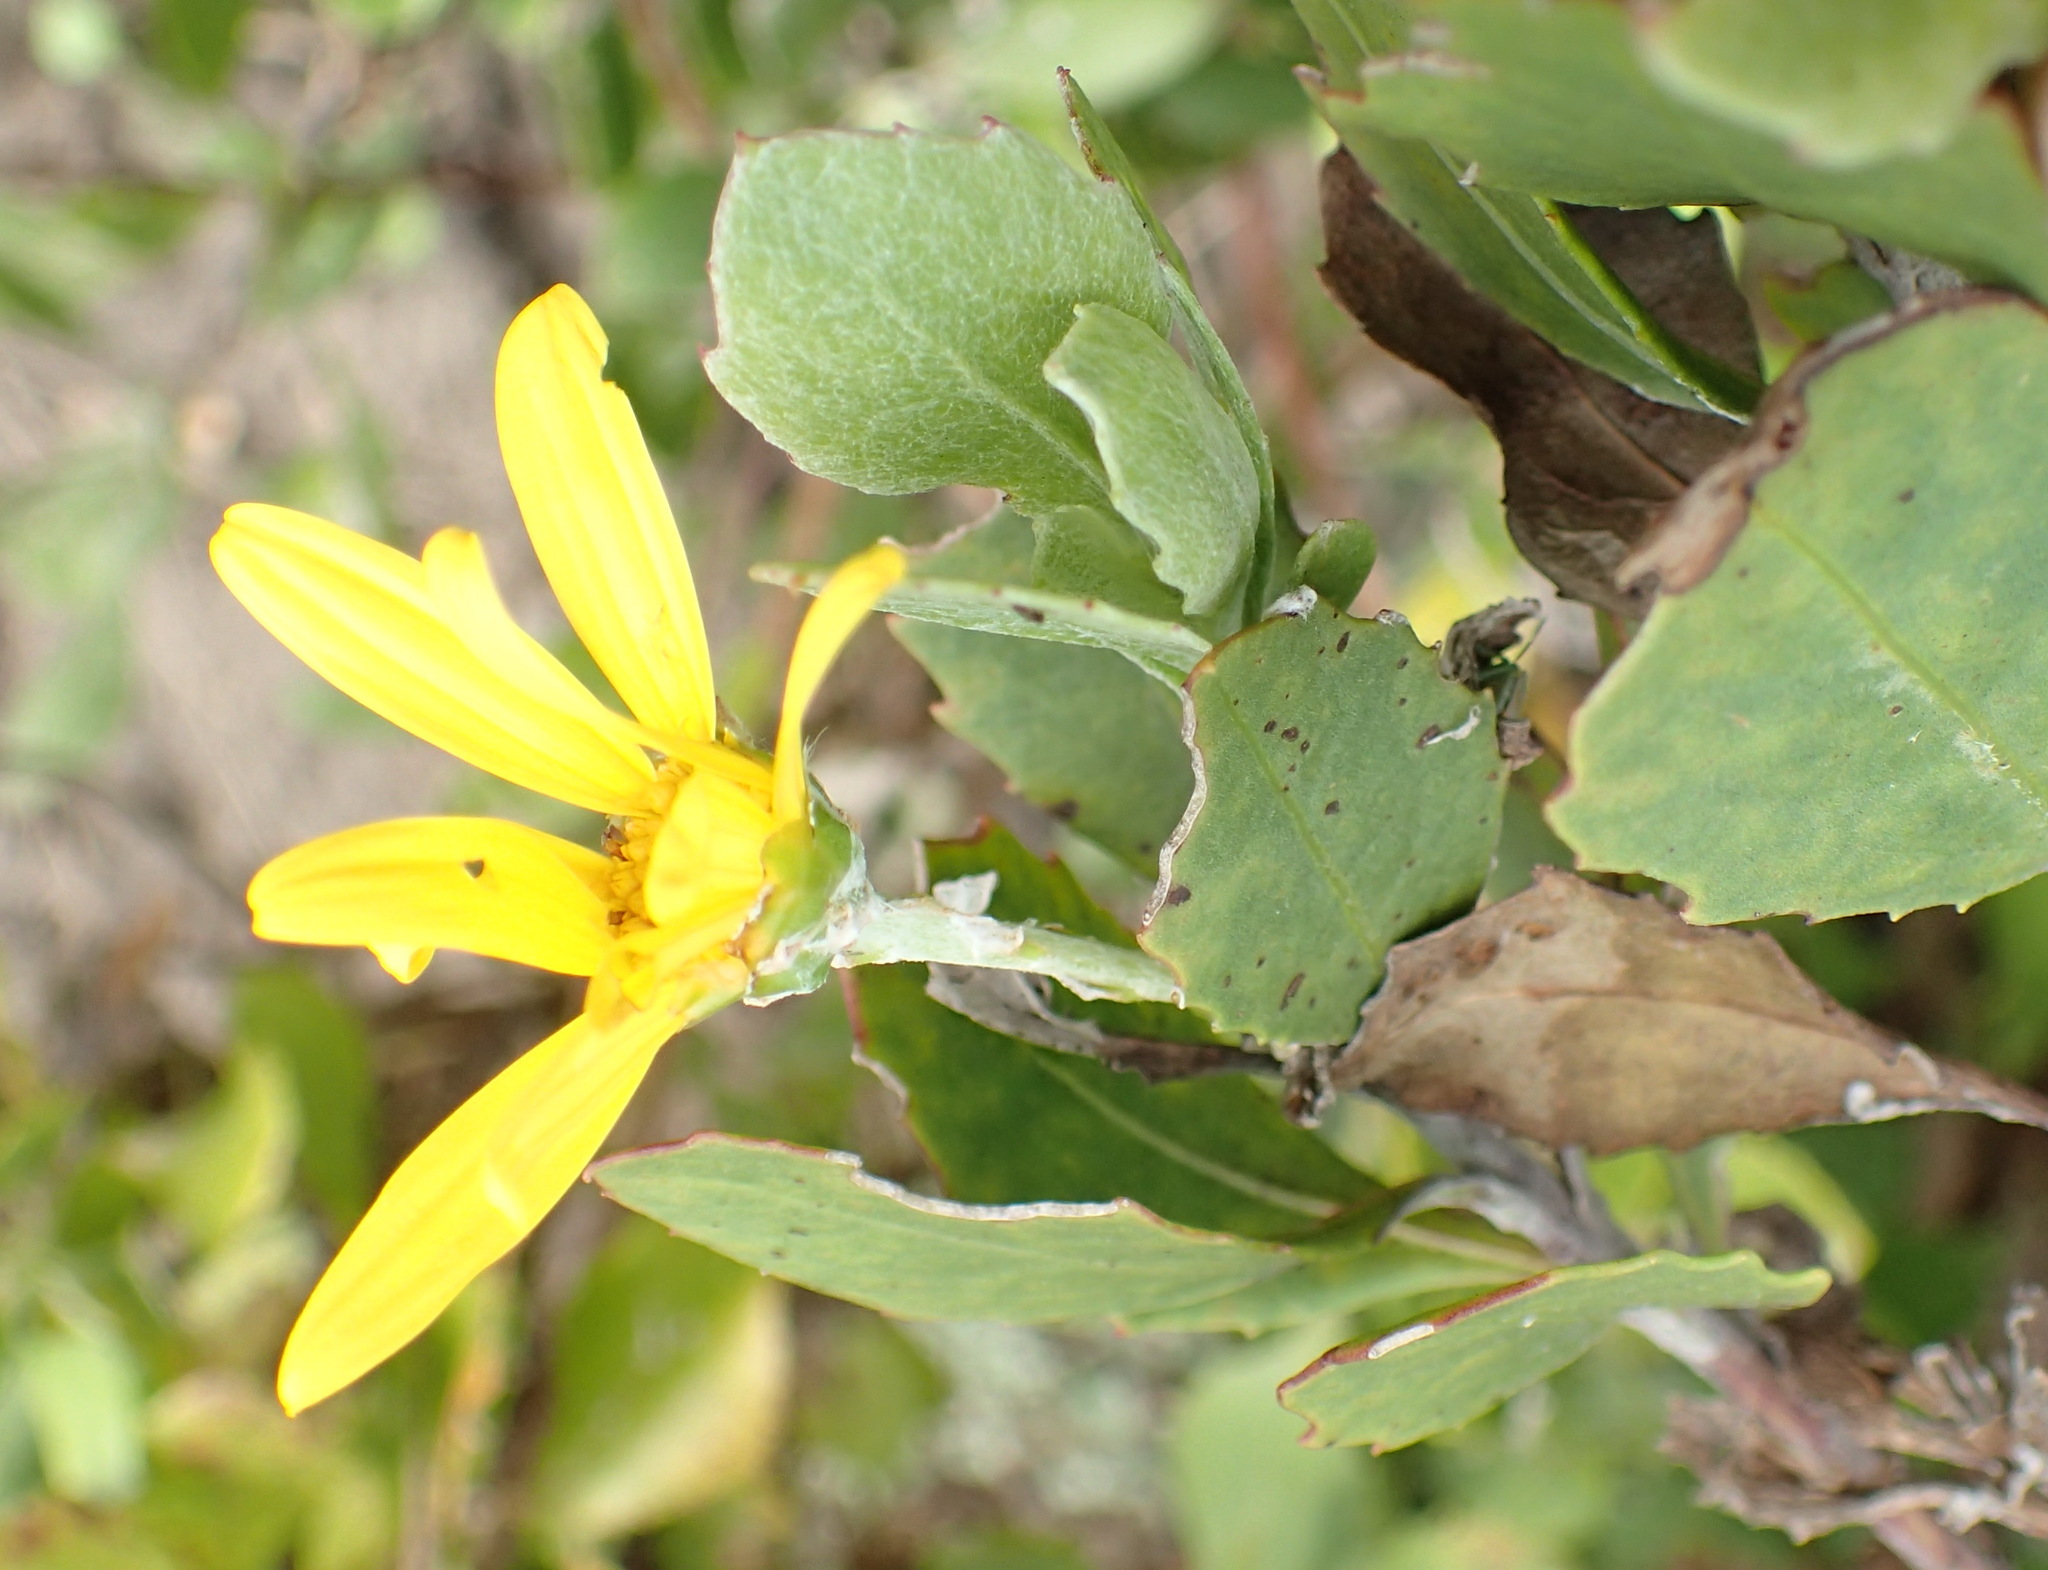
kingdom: Plantae
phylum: Tracheophyta
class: Magnoliopsida
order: Asterales
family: Asteraceae
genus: Osteospermum
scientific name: Osteospermum moniliferum
